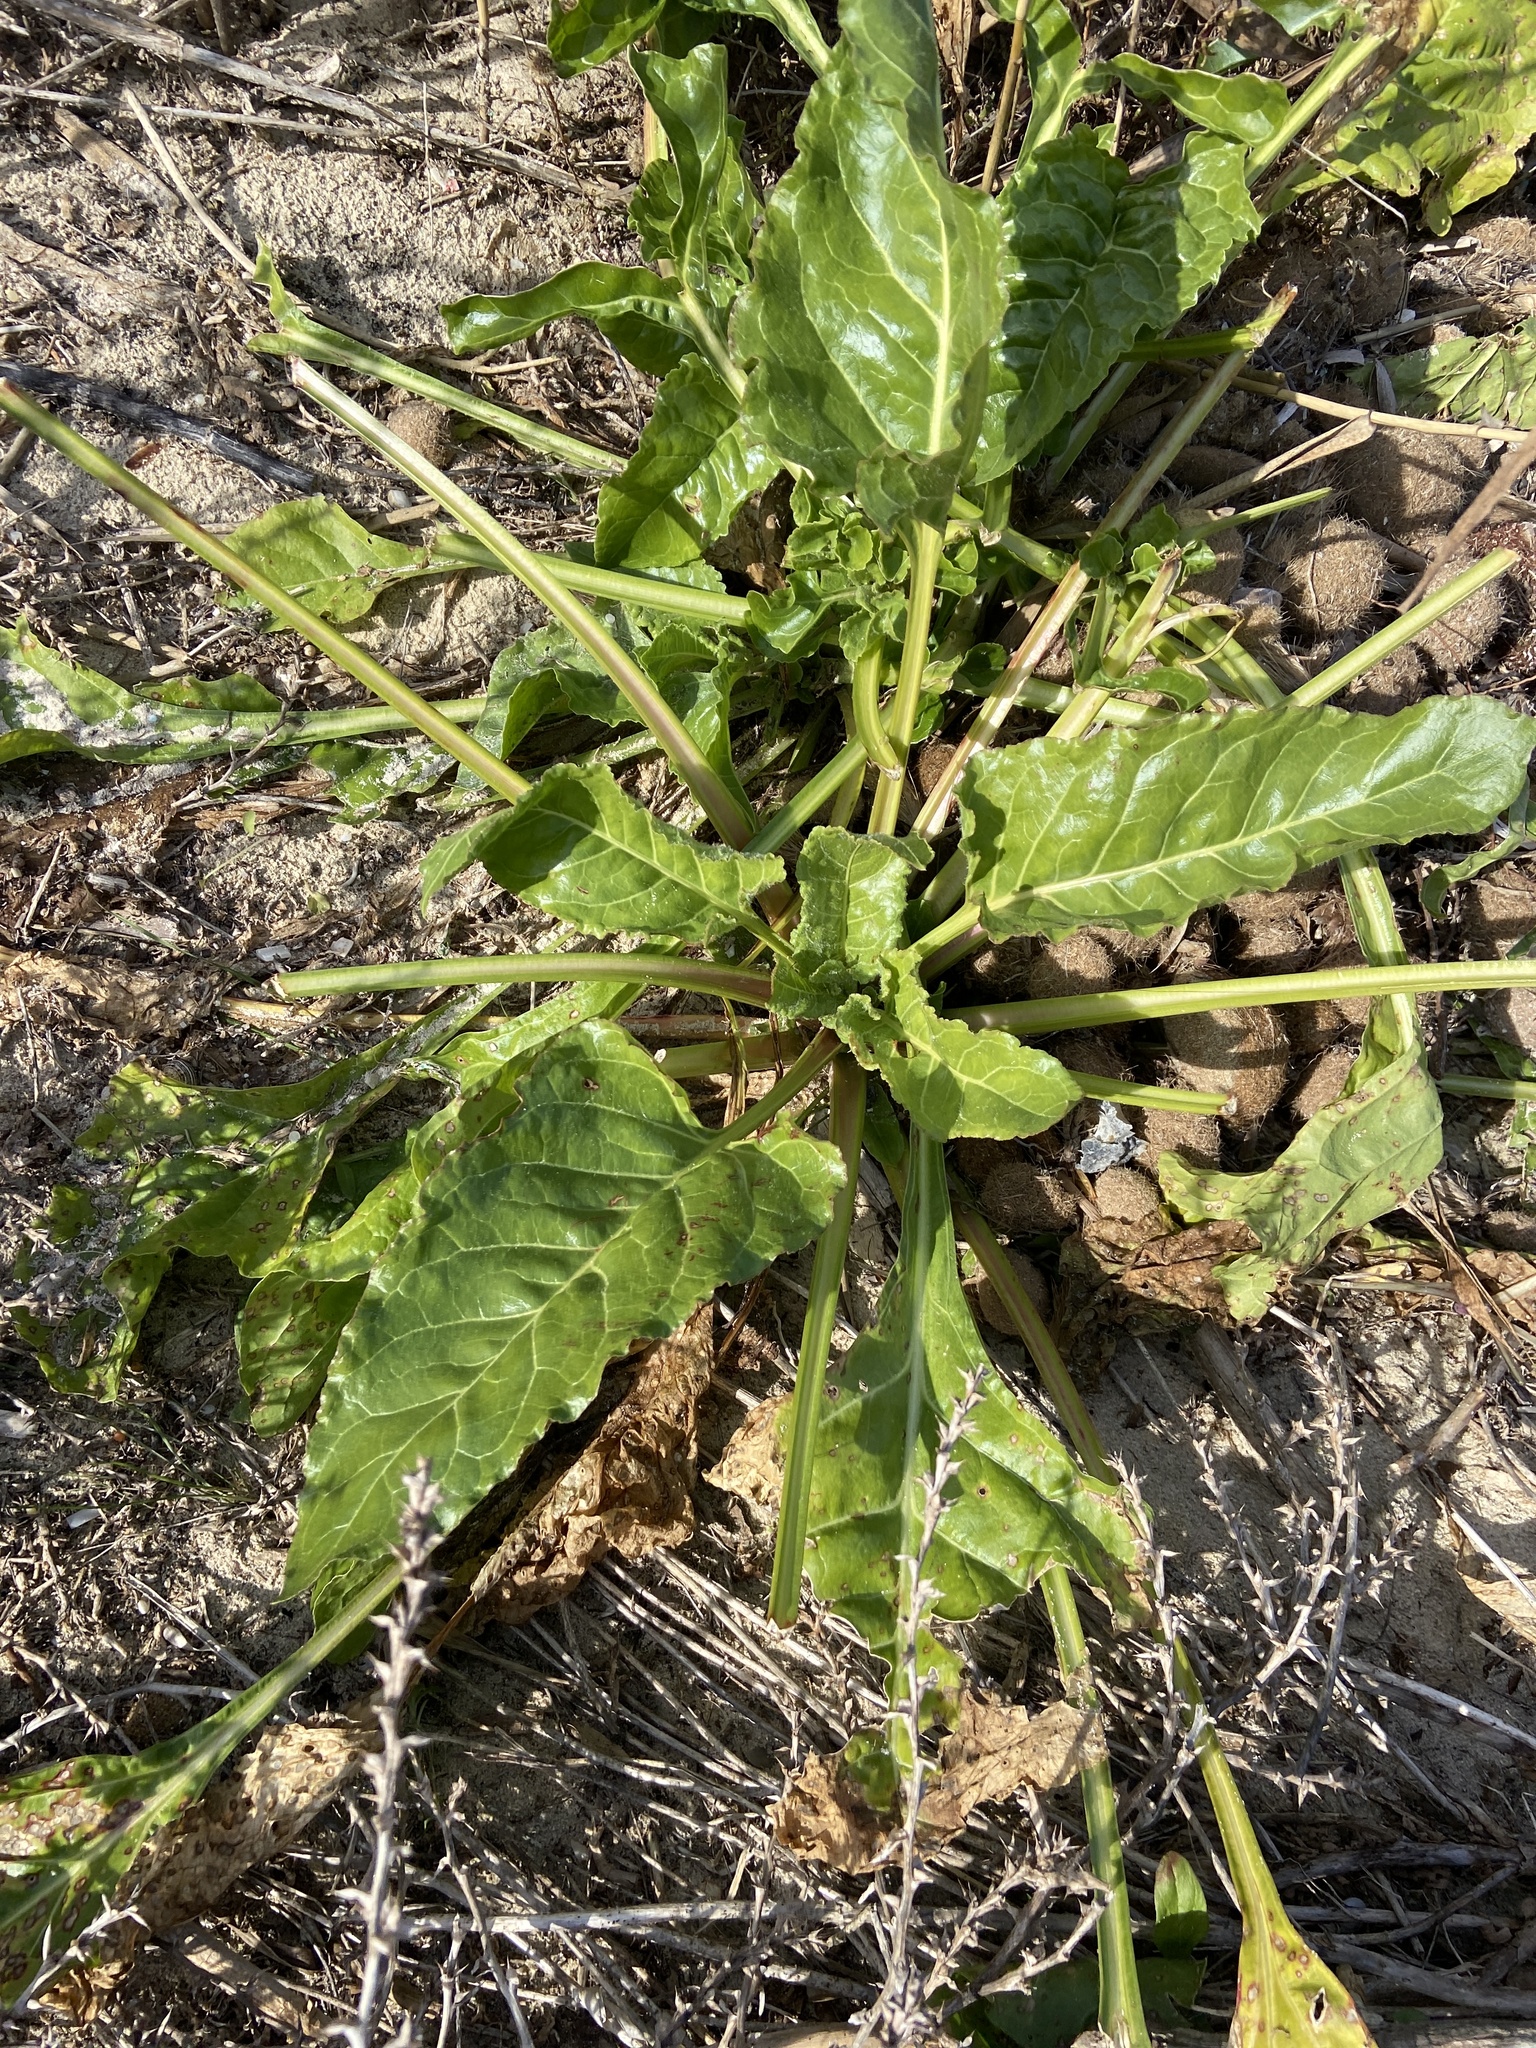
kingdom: Plantae
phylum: Tracheophyta
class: Magnoliopsida
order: Caryophyllales
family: Amaranthaceae
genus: Beta
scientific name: Beta vulgaris
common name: Beet
